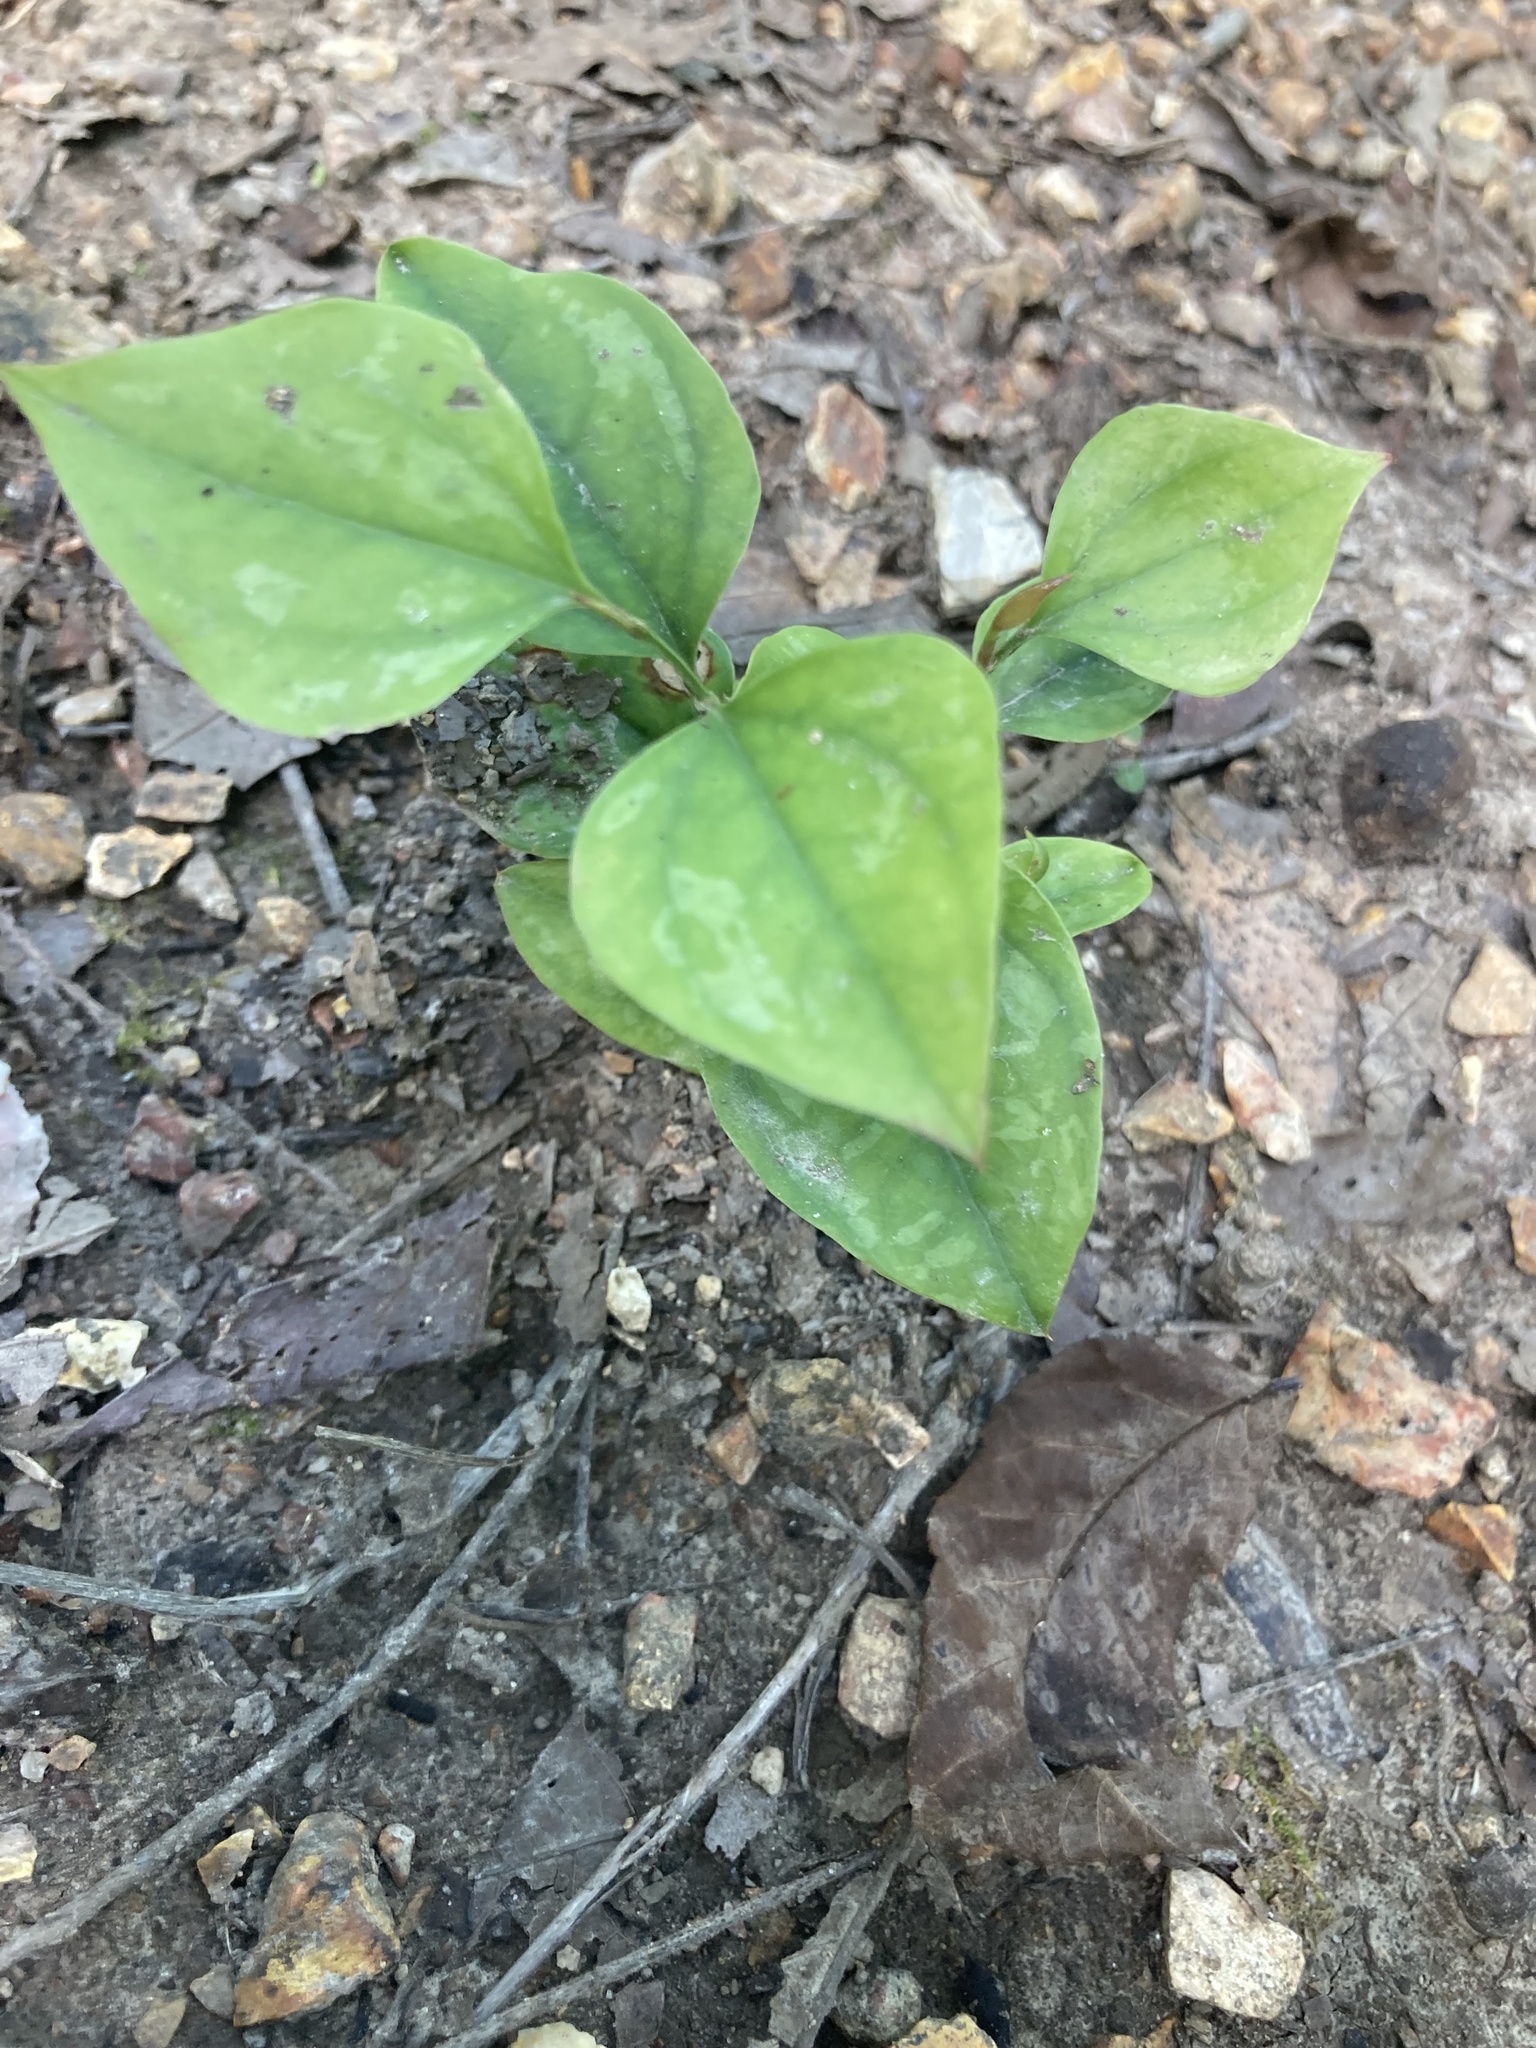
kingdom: Plantae
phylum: Tracheophyta
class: Liliopsida
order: Liliales
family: Smilacaceae
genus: Smilax
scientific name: Smilax glauca
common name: Cat greenbrier
